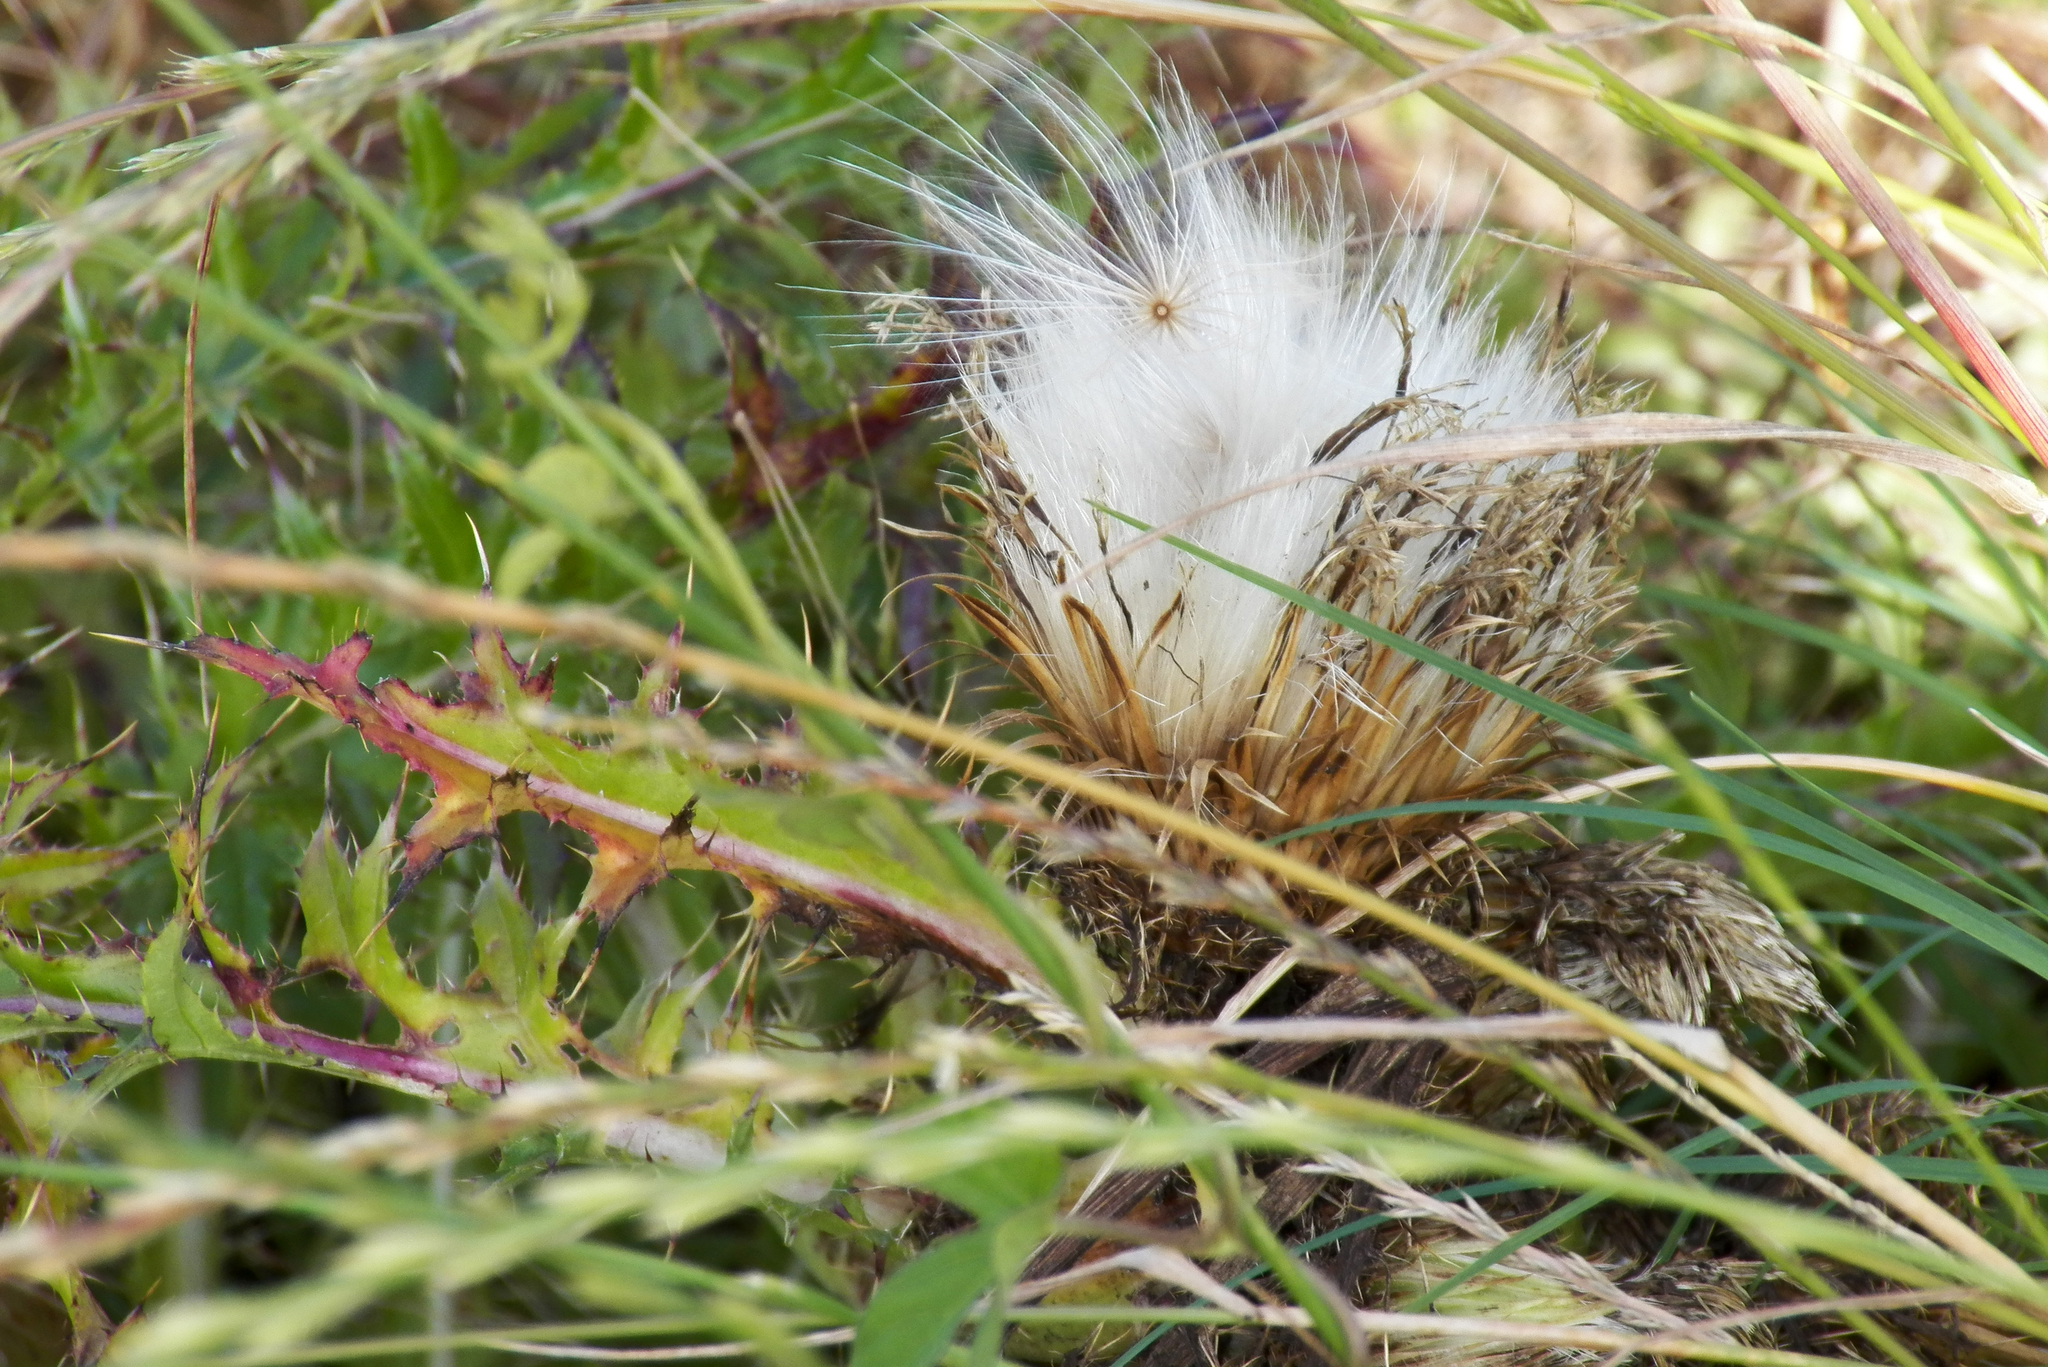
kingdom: Plantae
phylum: Tracheophyta
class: Magnoliopsida
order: Asterales
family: Asteraceae
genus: Cirsium
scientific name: Cirsium horridulum
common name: Bristly thistle
